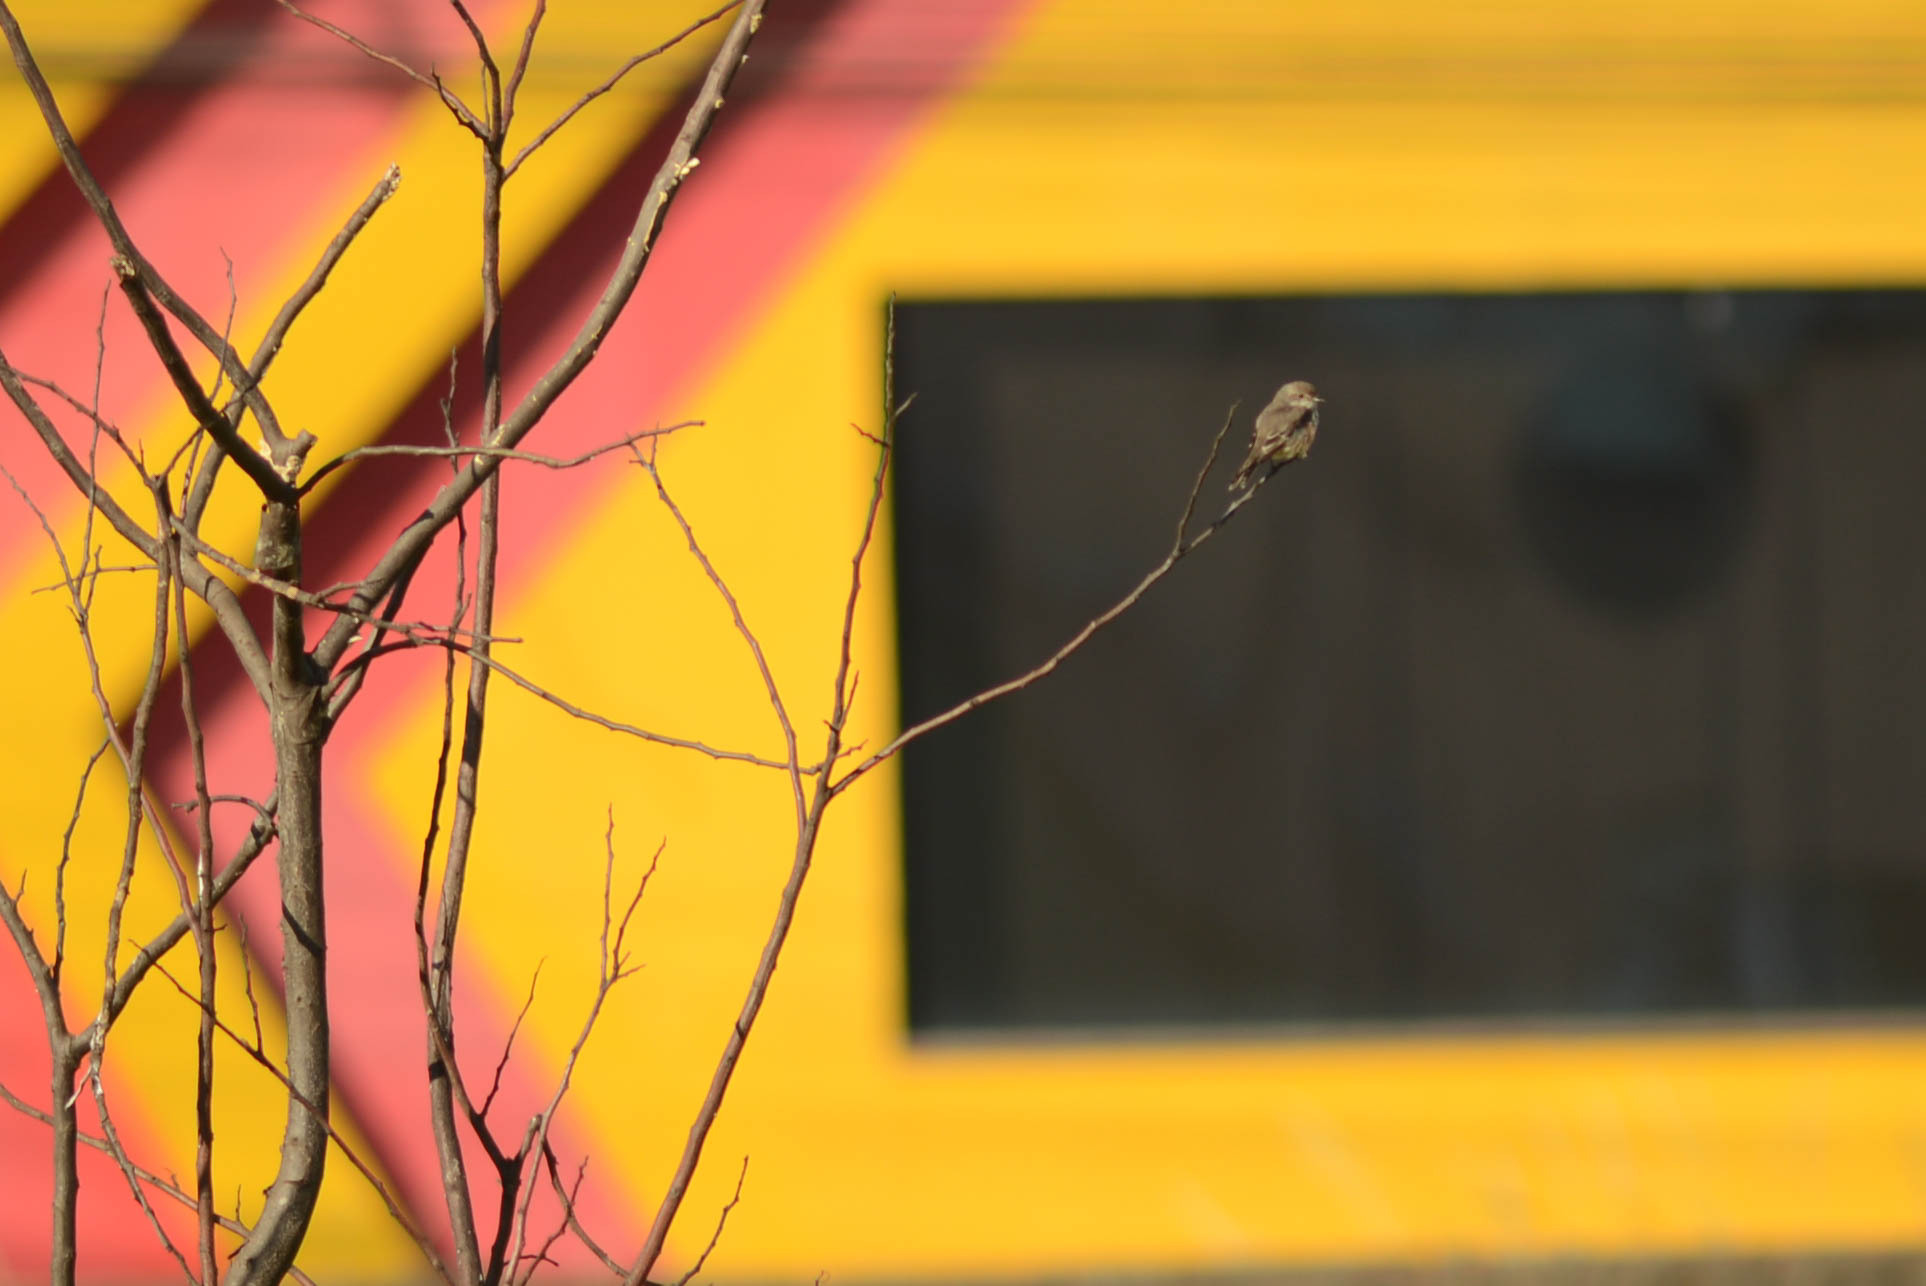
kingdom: Animalia
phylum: Chordata
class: Aves
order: Passeriformes
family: Tyrannidae
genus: Pyrocephalus
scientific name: Pyrocephalus rubinus
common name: Vermilion flycatcher
